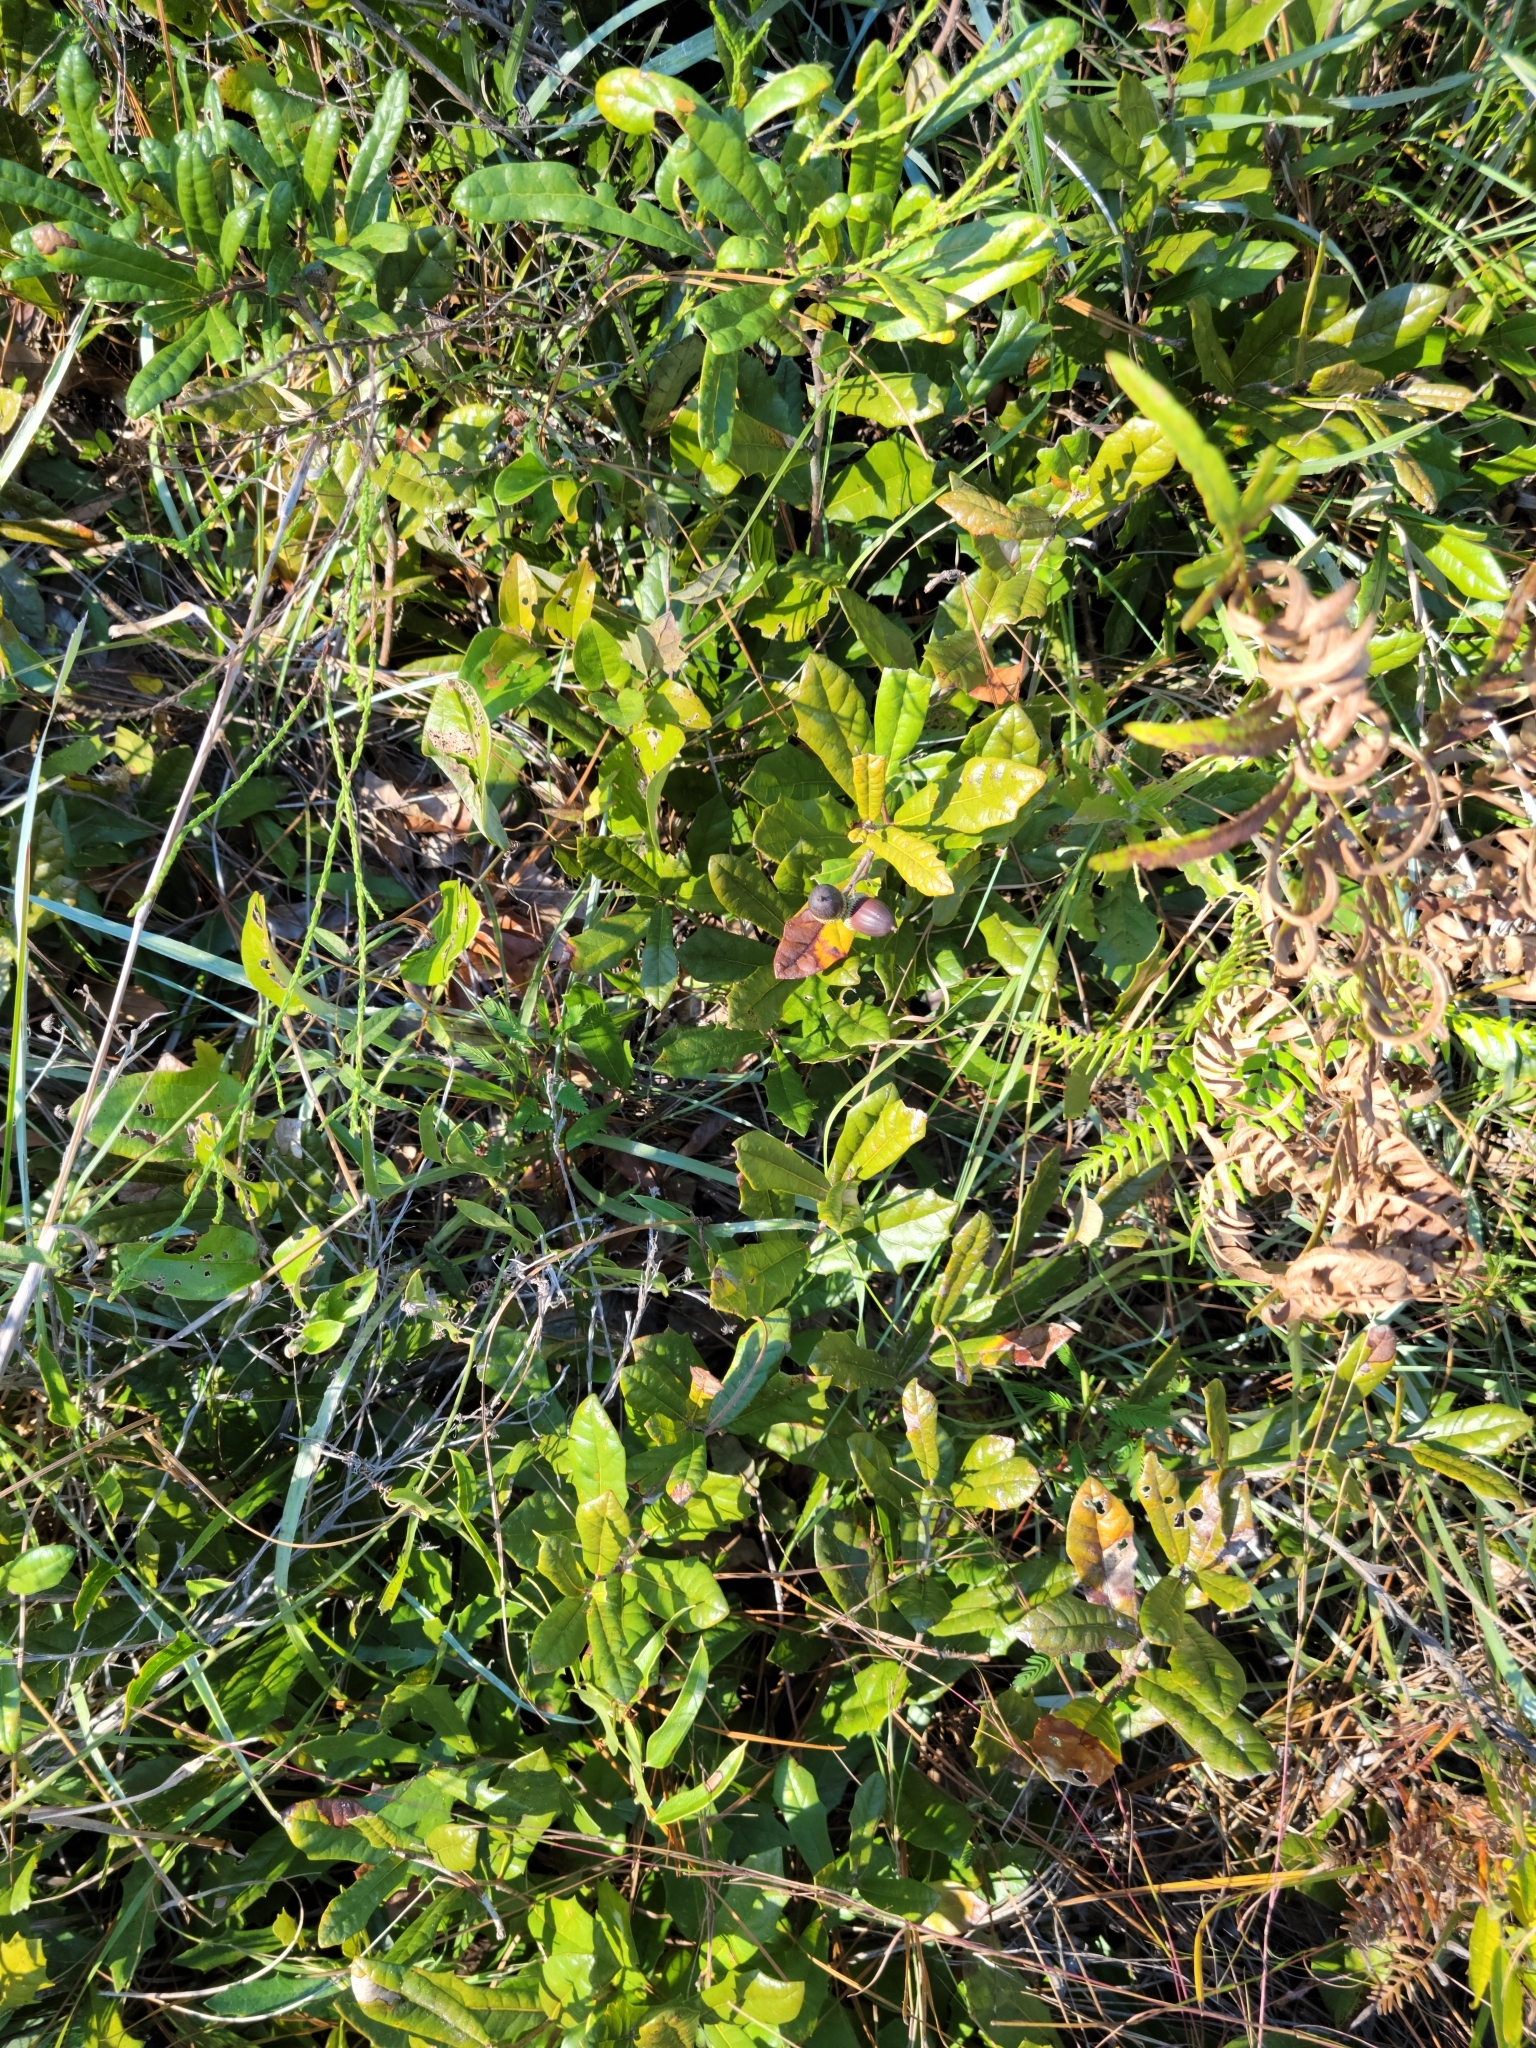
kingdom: Plantae
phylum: Tracheophyta
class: Magnoliopsida
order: Fagales
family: Fagaceae
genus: Quercus
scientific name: Quercus minima
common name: Dwarf live oak
